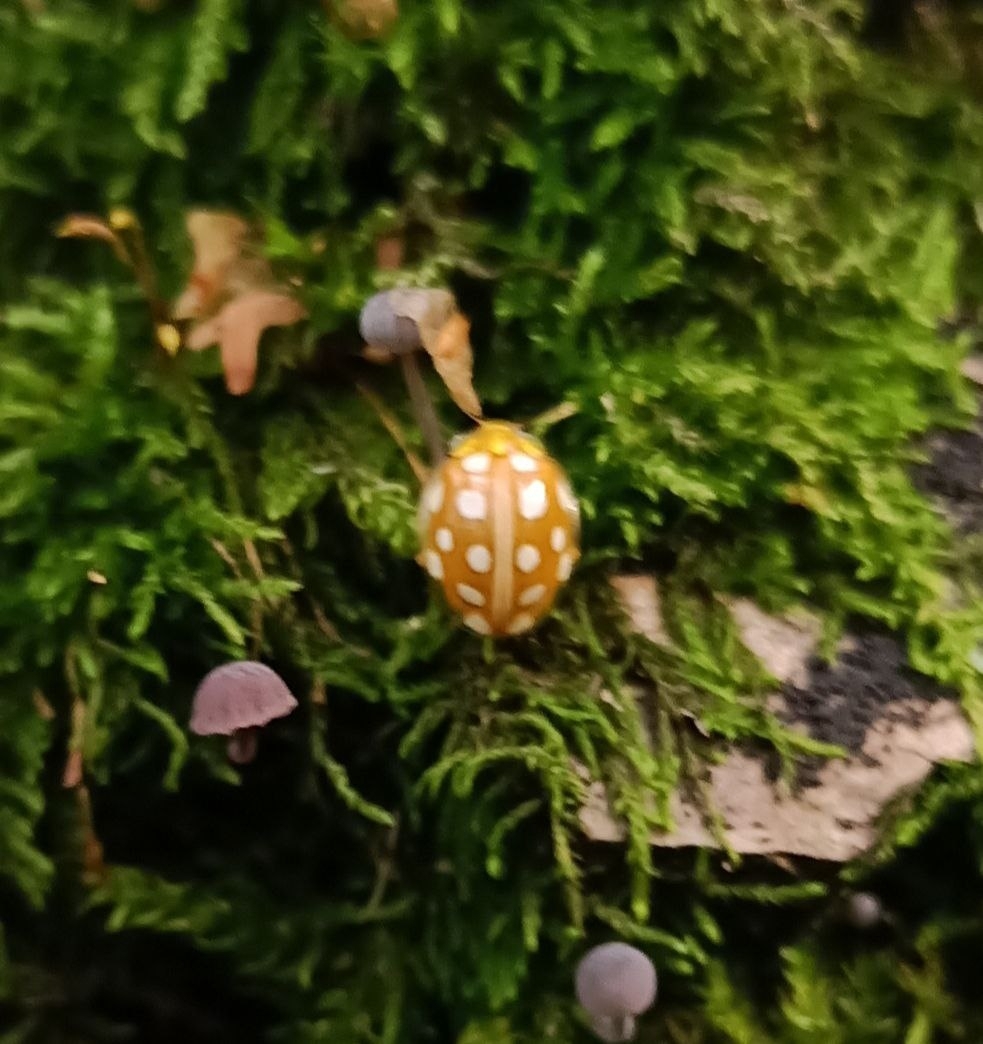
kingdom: Animalia
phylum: Arthropoda
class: Insecta
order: Coleoptera
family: Coccinellidae
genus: Halyzia
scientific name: Halyzia sedecimguttata
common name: Orange ladybird
